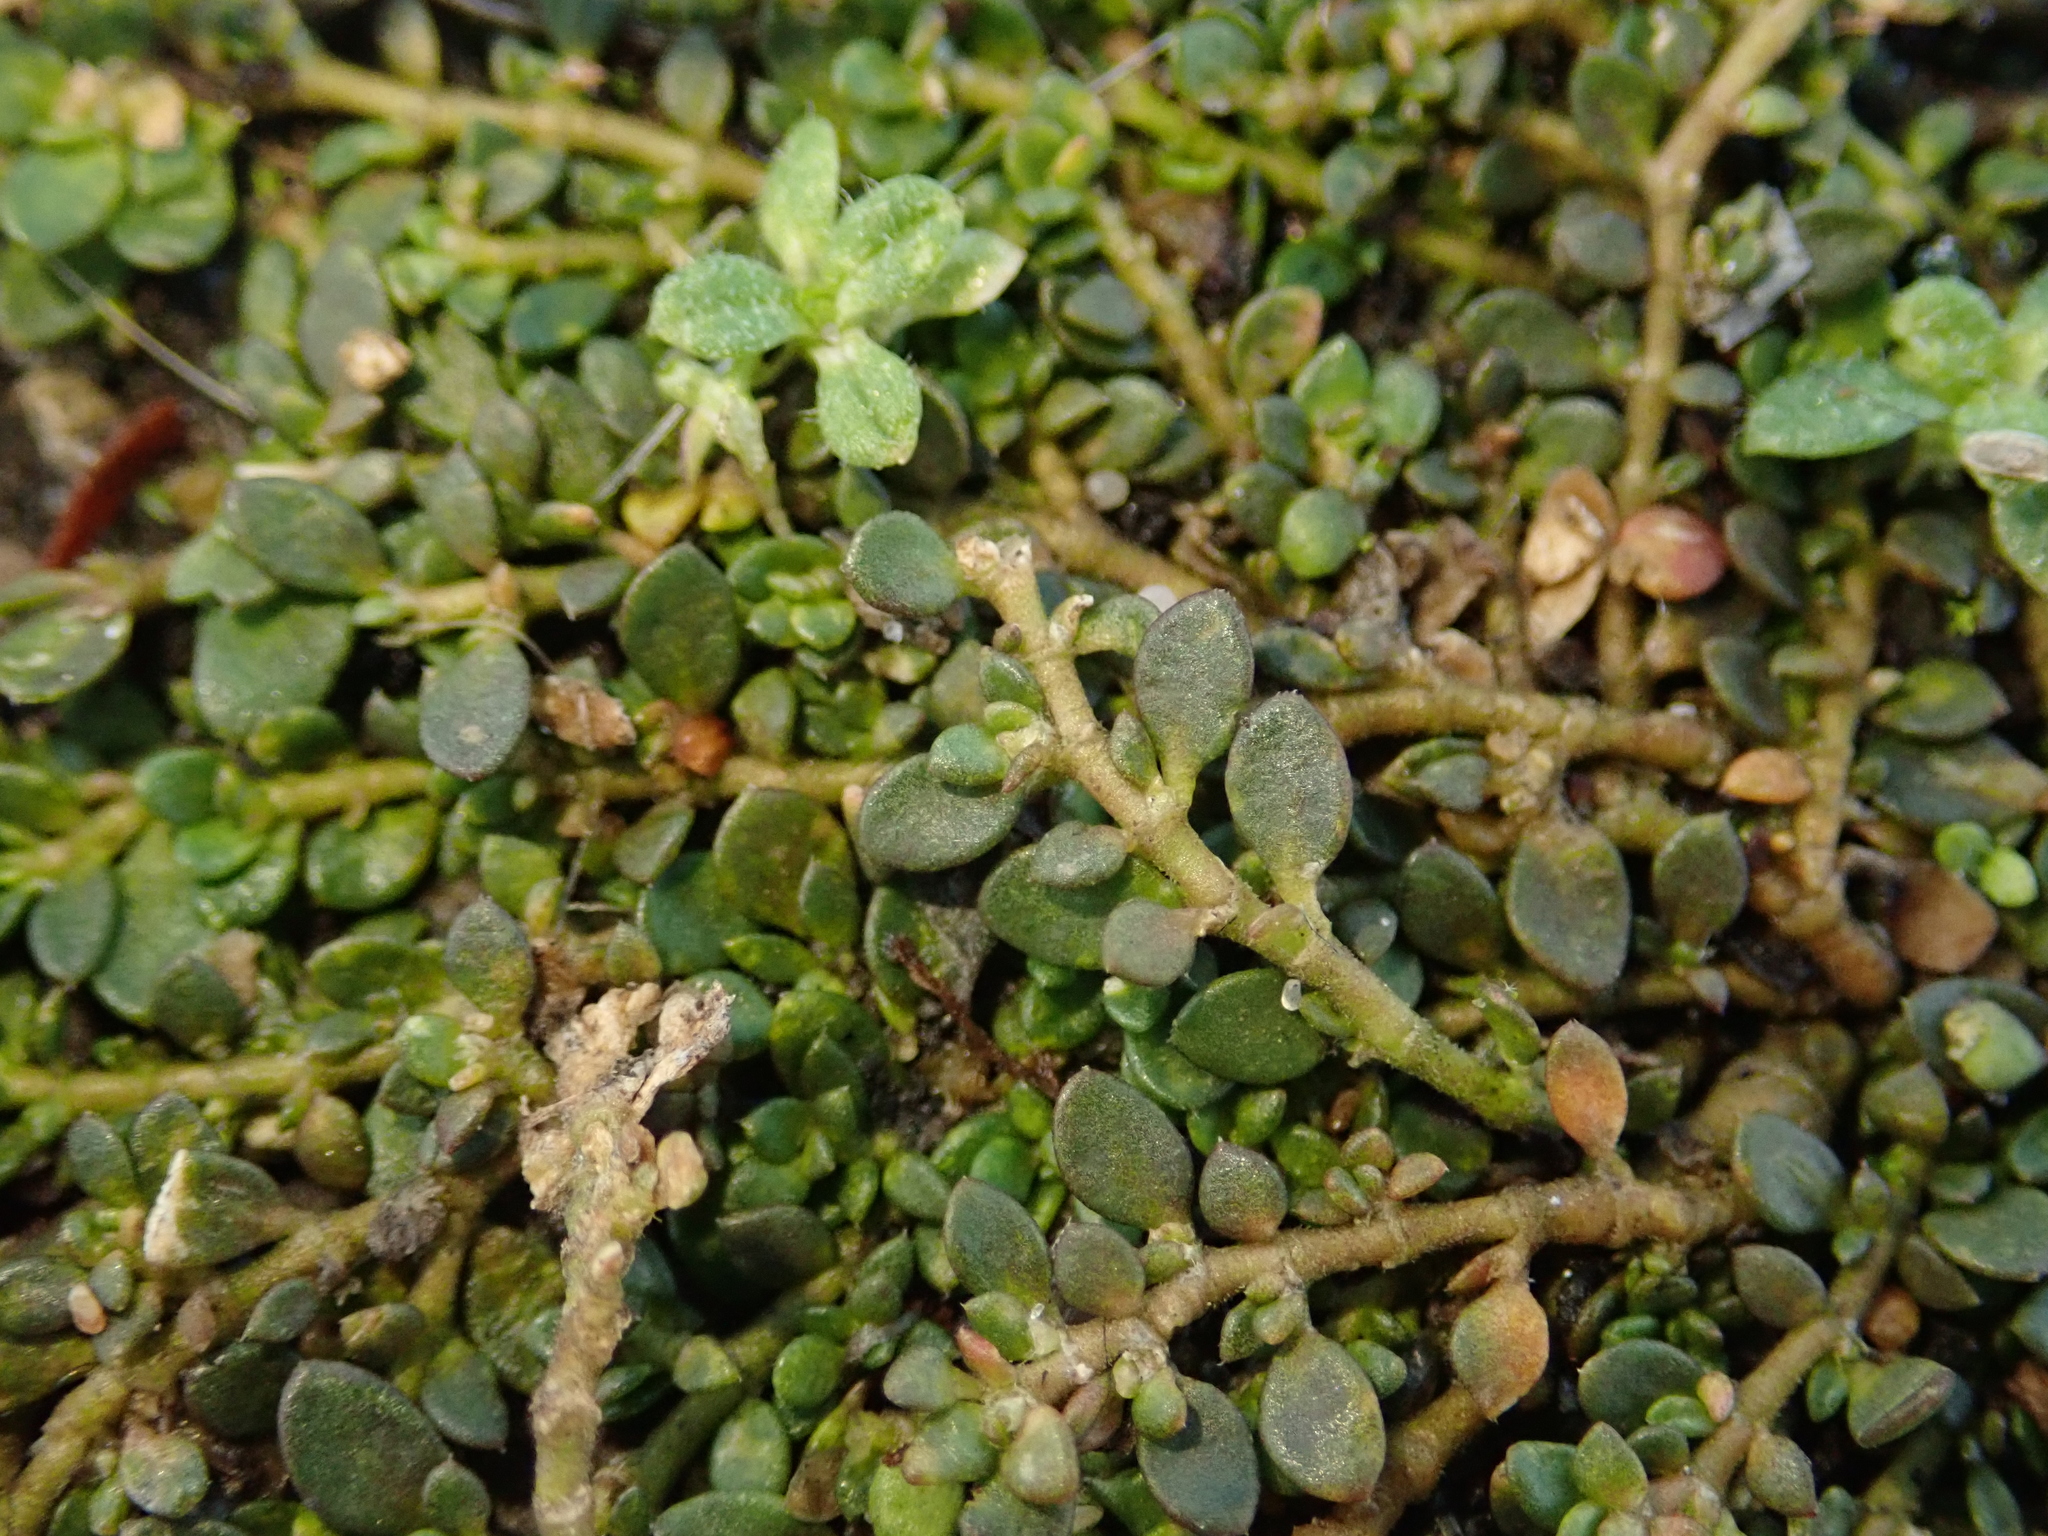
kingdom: Plantae
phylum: Tracheophyta
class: Magnoliopsida
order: Caryophyllales
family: Caryophyllaceae
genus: Herniaria
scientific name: Herniaria glabra
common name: Smooth rupturewort
